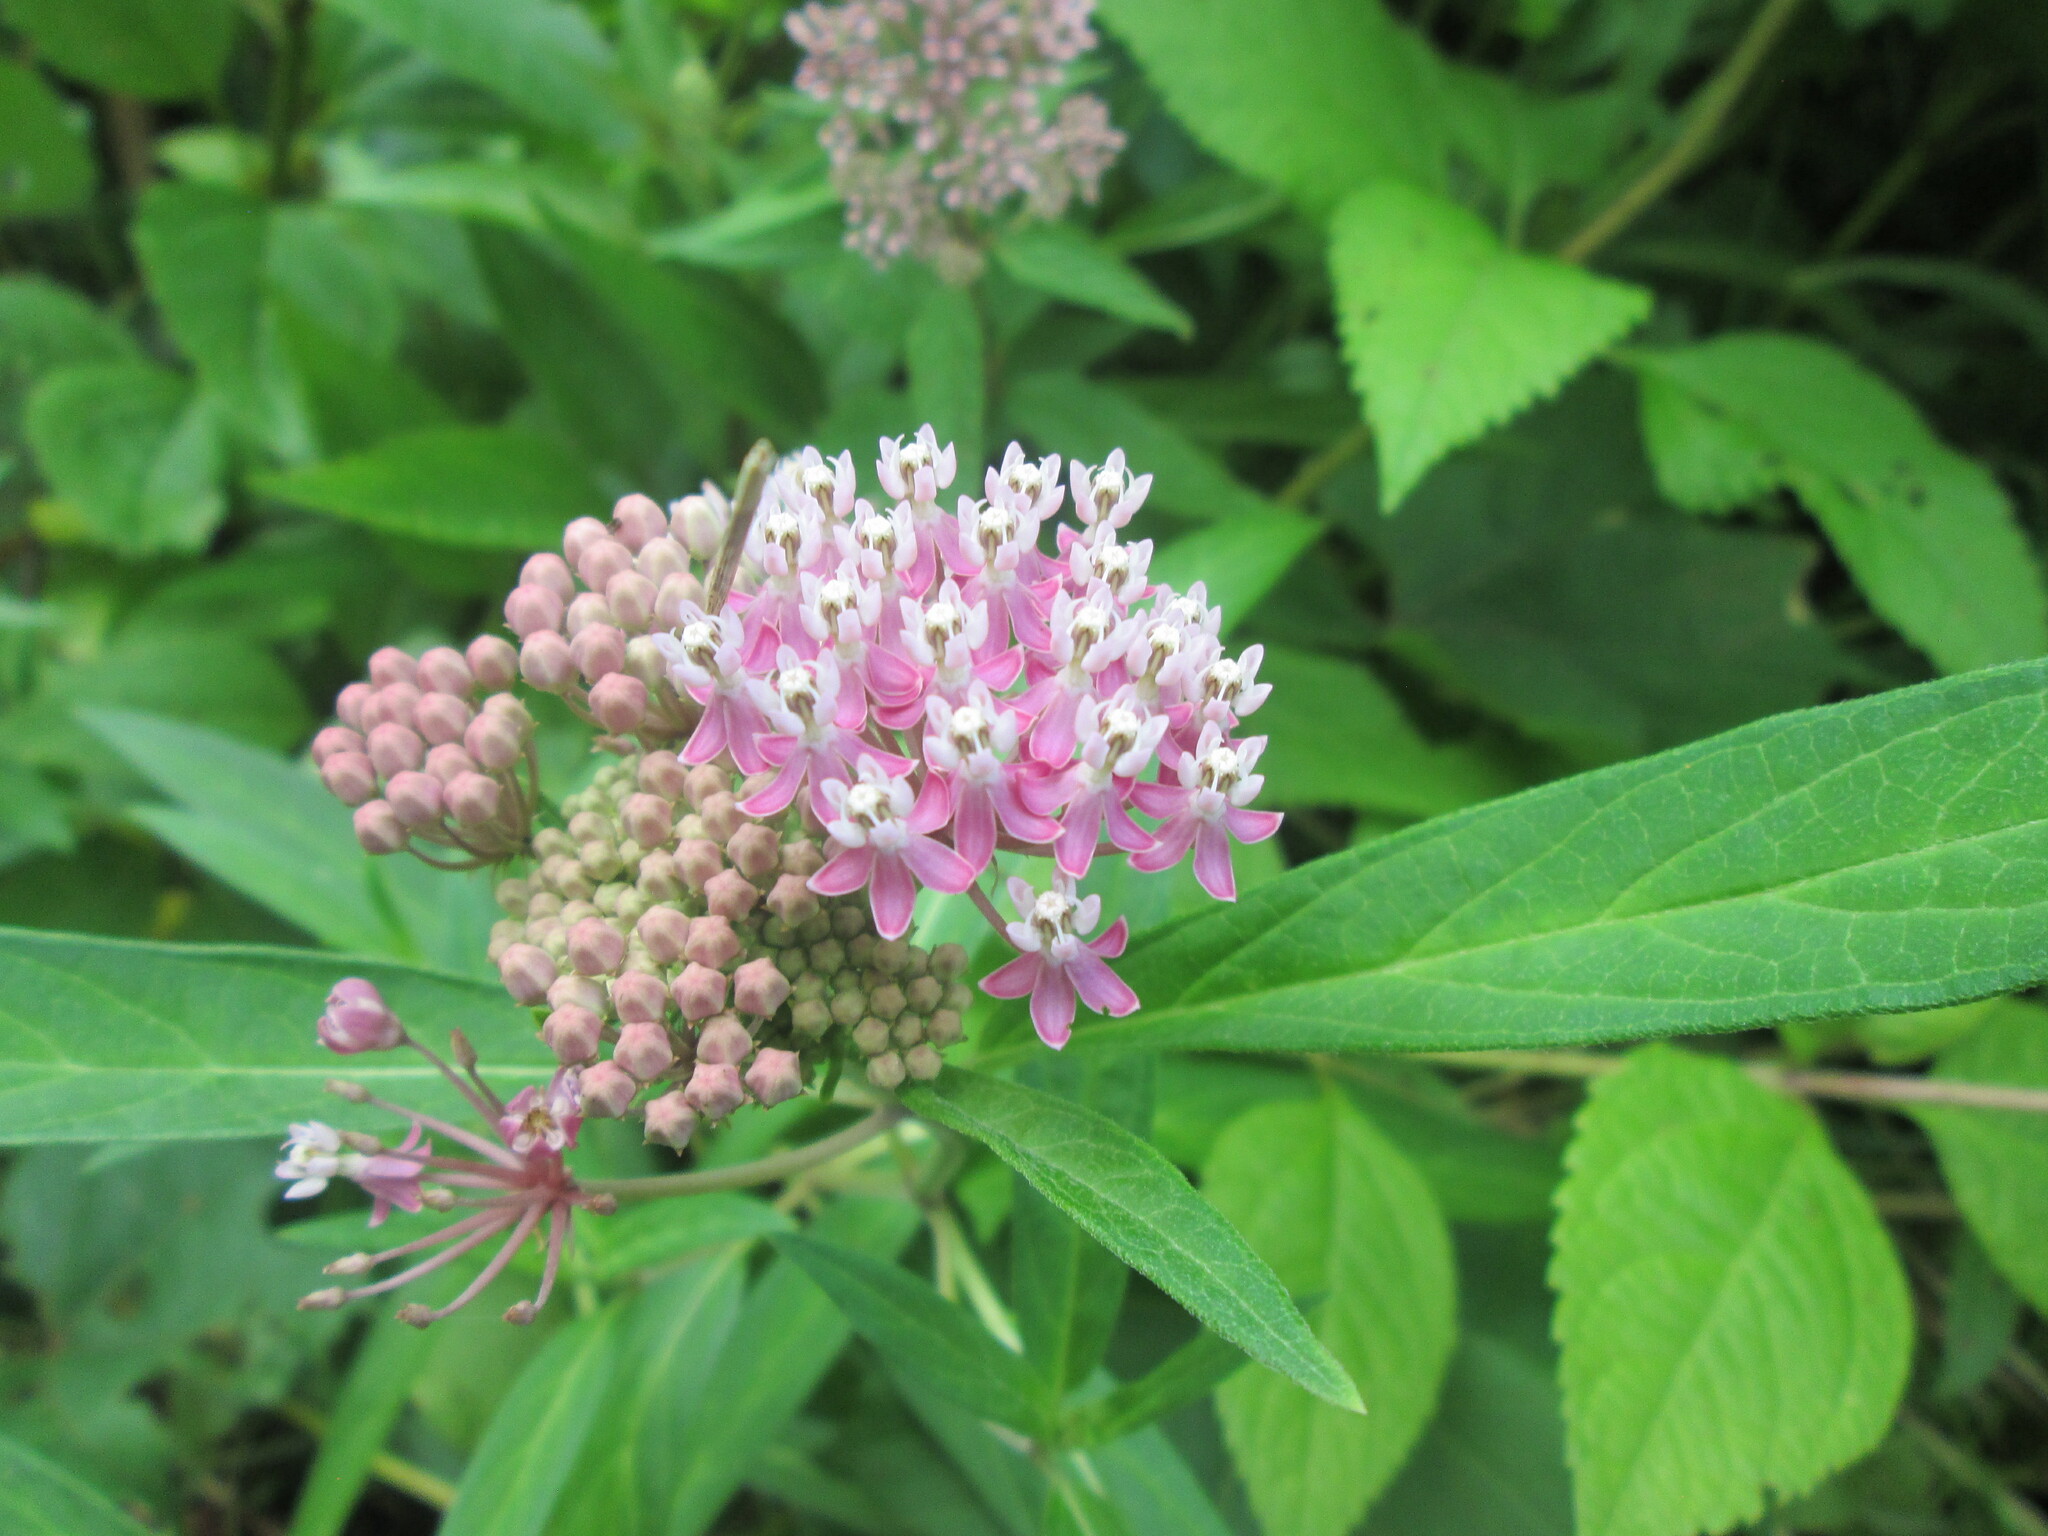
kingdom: Plantae
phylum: Tracheophyta
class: Magnoliopsida
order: Gentianales
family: Apocynaceae
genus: Asclepias
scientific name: Asclepias incarnata
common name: Swamp milkweed
